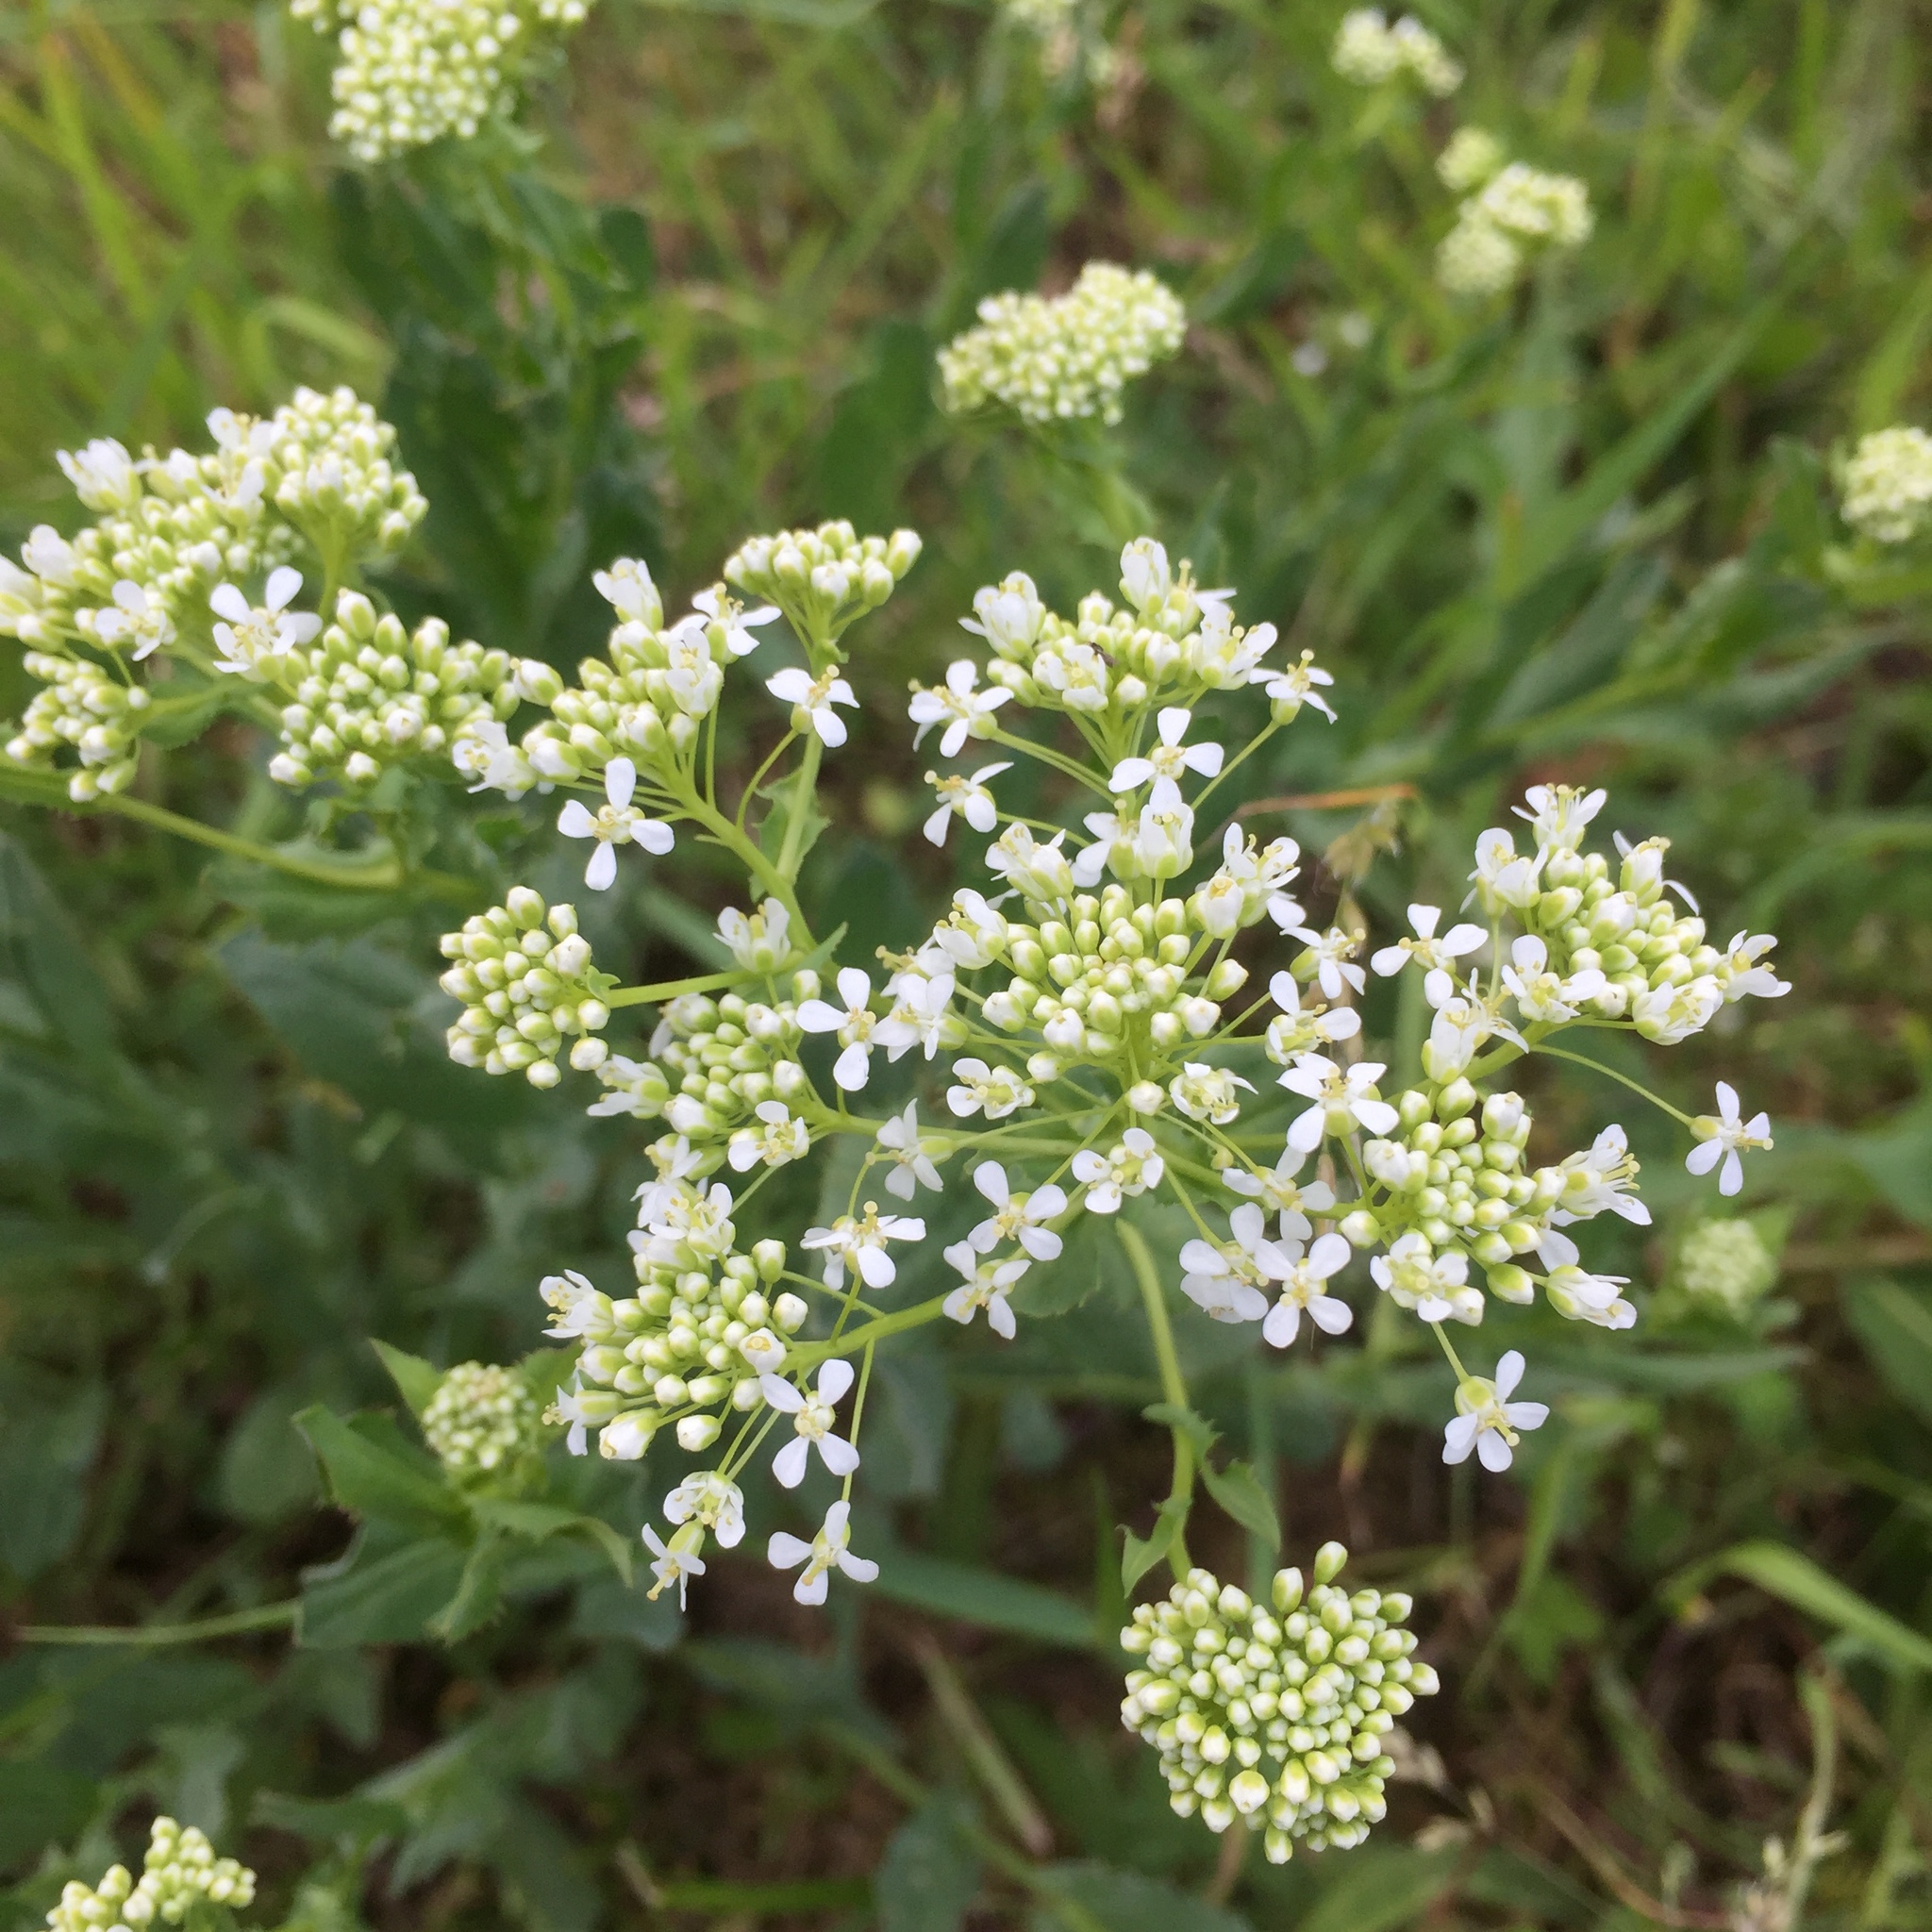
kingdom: Plantae
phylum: Tracheophyta
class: Magnoliopsida
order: Brassicales
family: Brassicaceae
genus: Lepidium
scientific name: Lepidium draba
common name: Hoary cress
